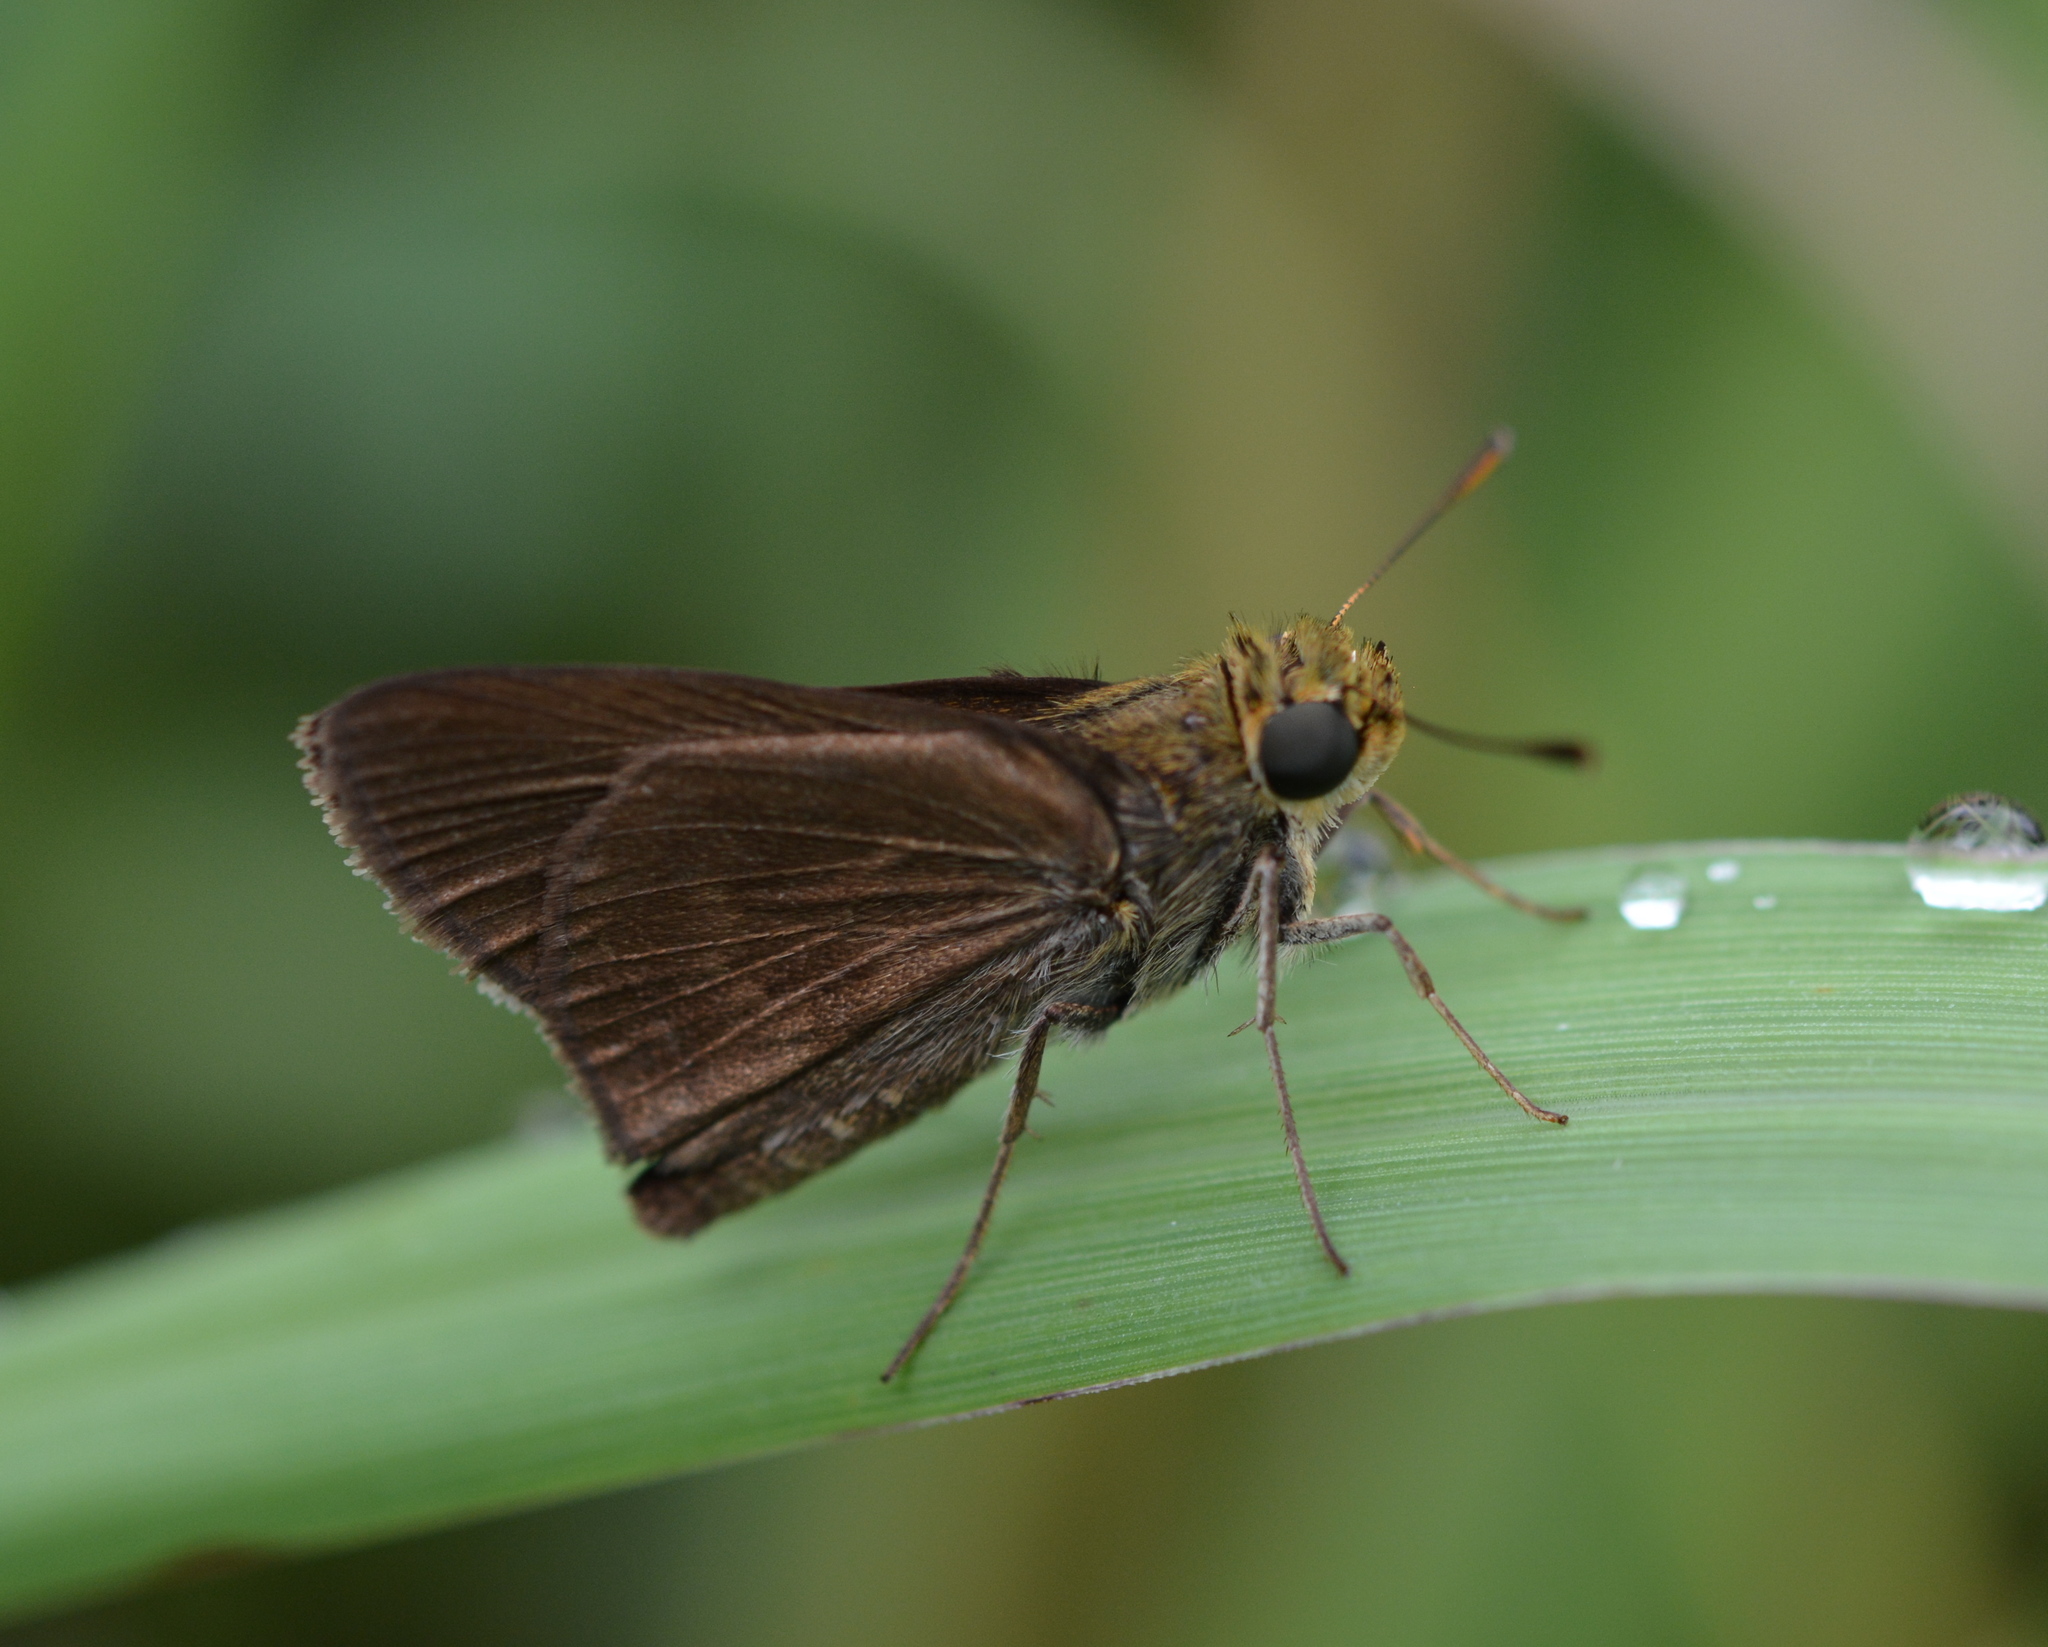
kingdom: Animalia
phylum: Arthropoda
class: Insecta
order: Lepidoptera
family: Hesperiidae
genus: Euphyes
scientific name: Euphyes vestris
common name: Dun skipper
